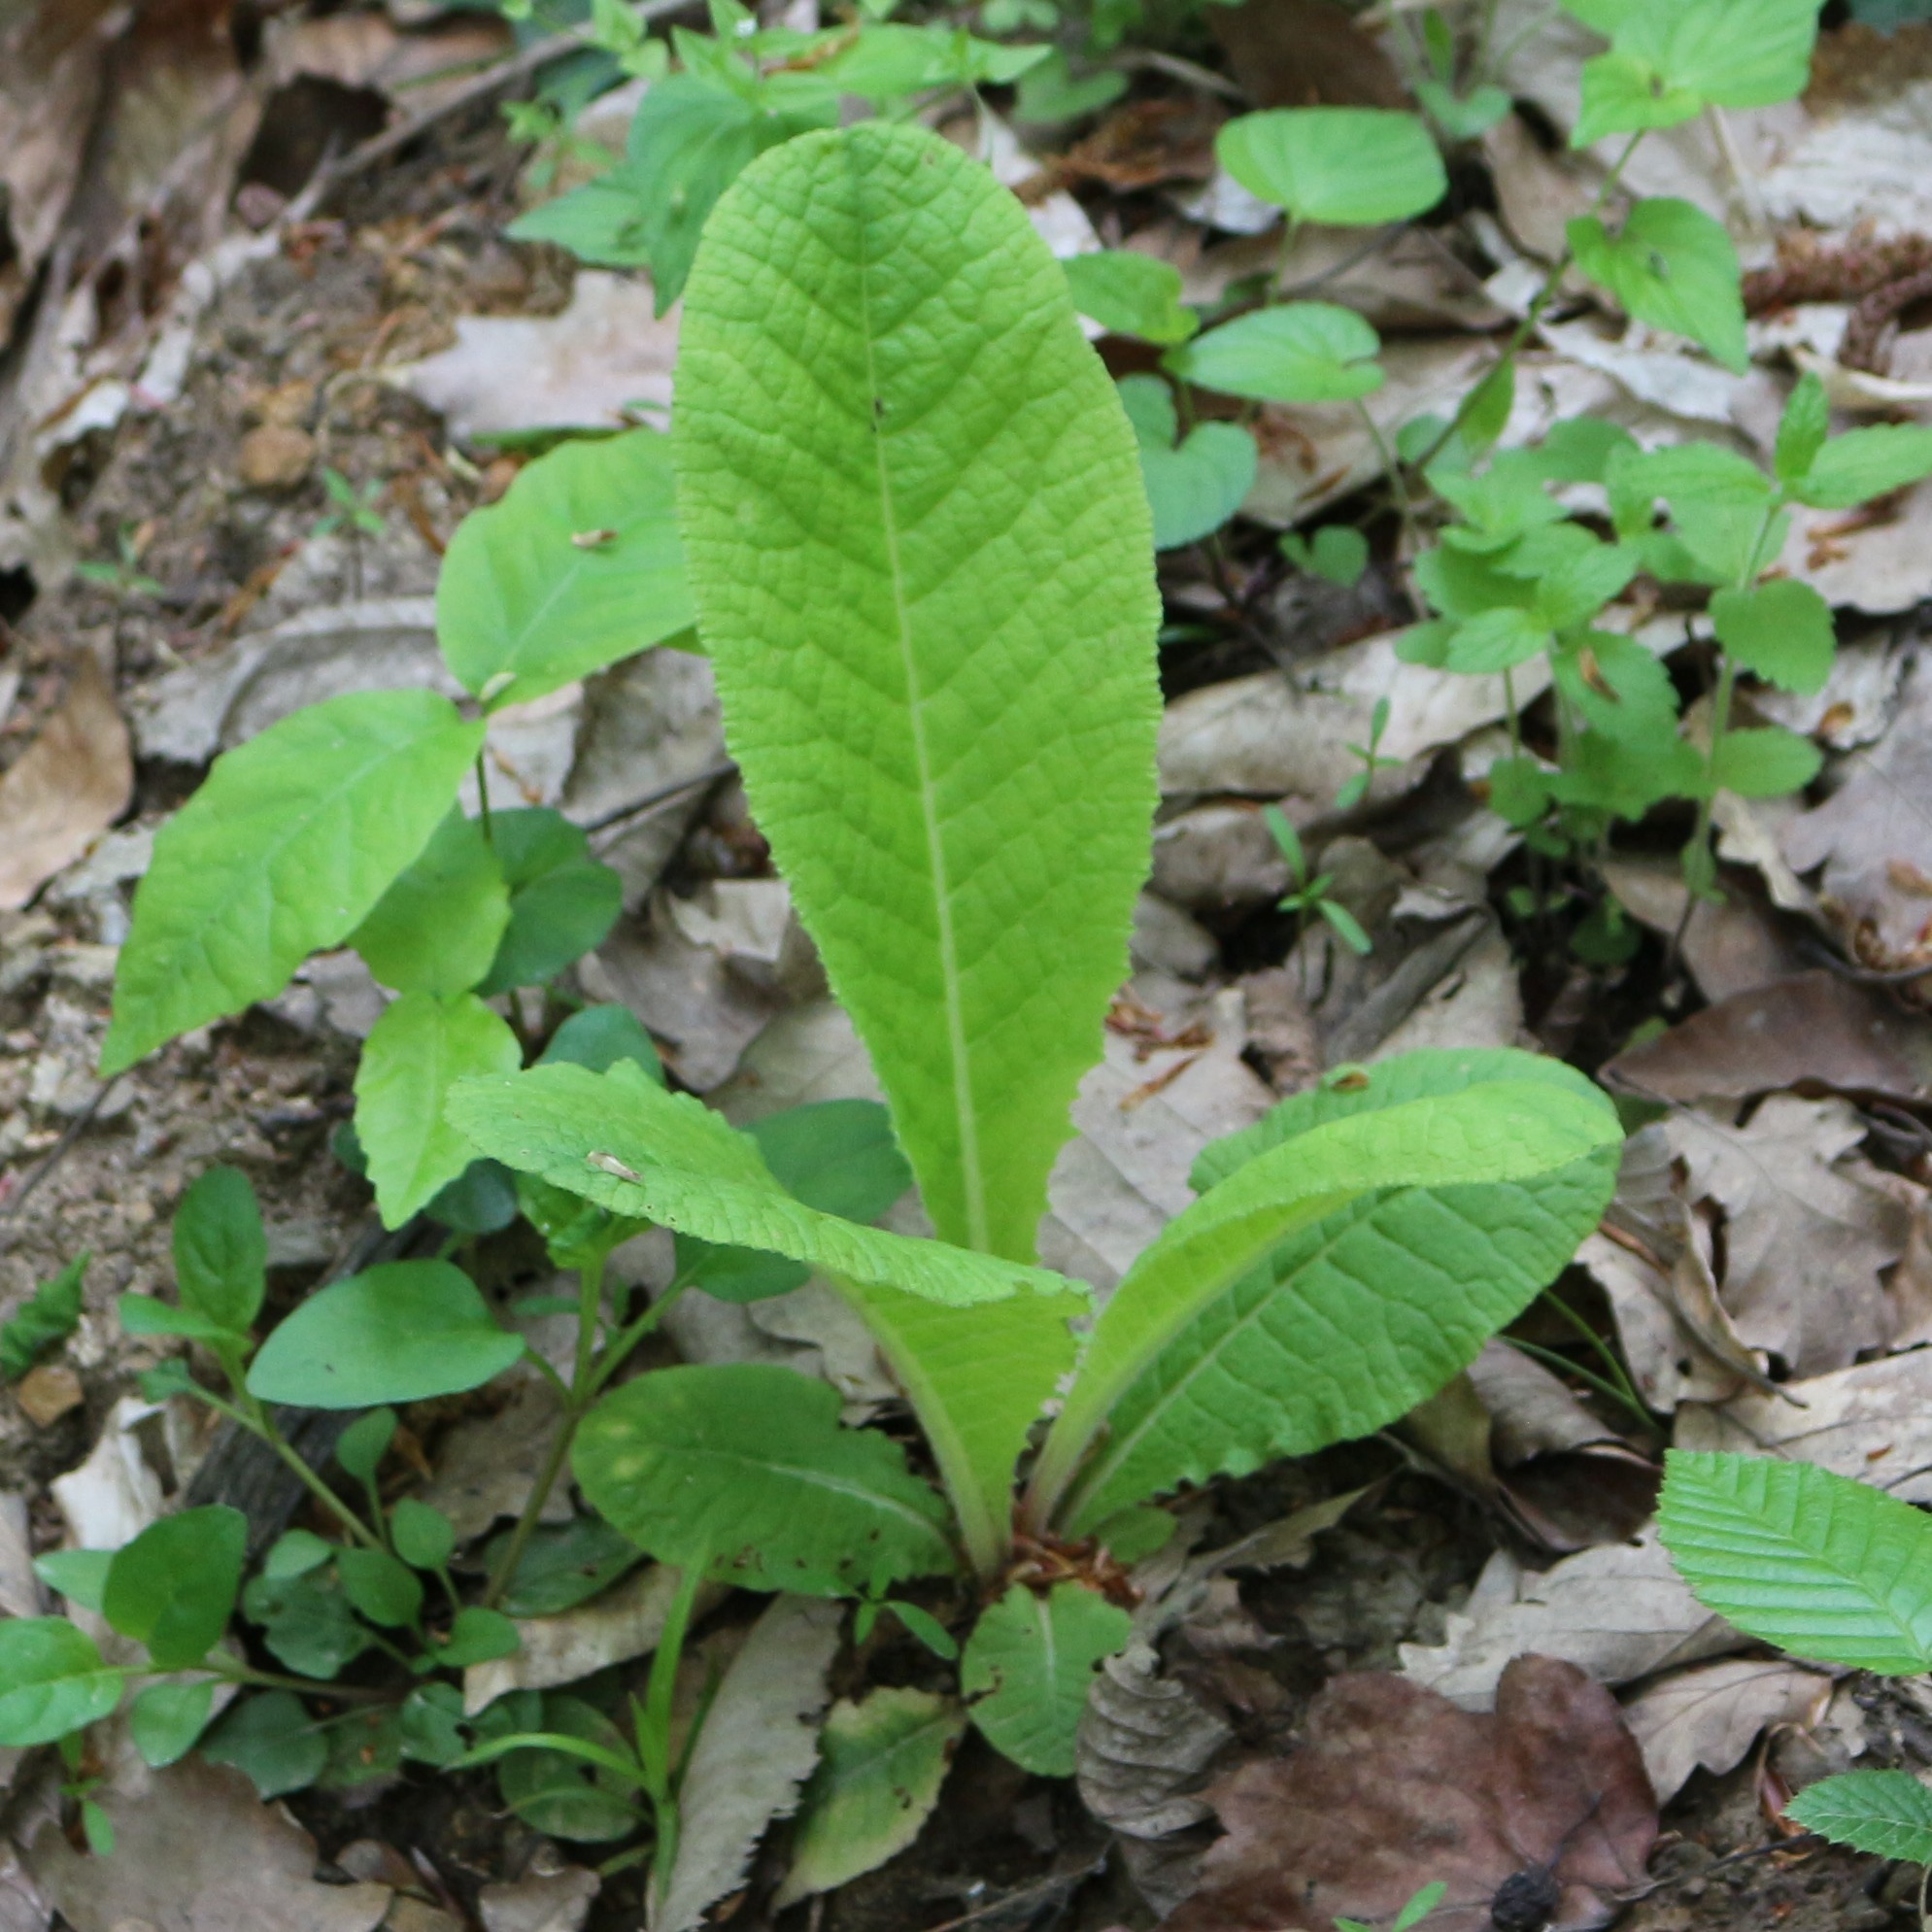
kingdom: Plantae
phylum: Tracheophyta
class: Magnoliopsida
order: Ericales
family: Primulaceae
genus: Primula
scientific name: Primula vulgaris
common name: Primrose
